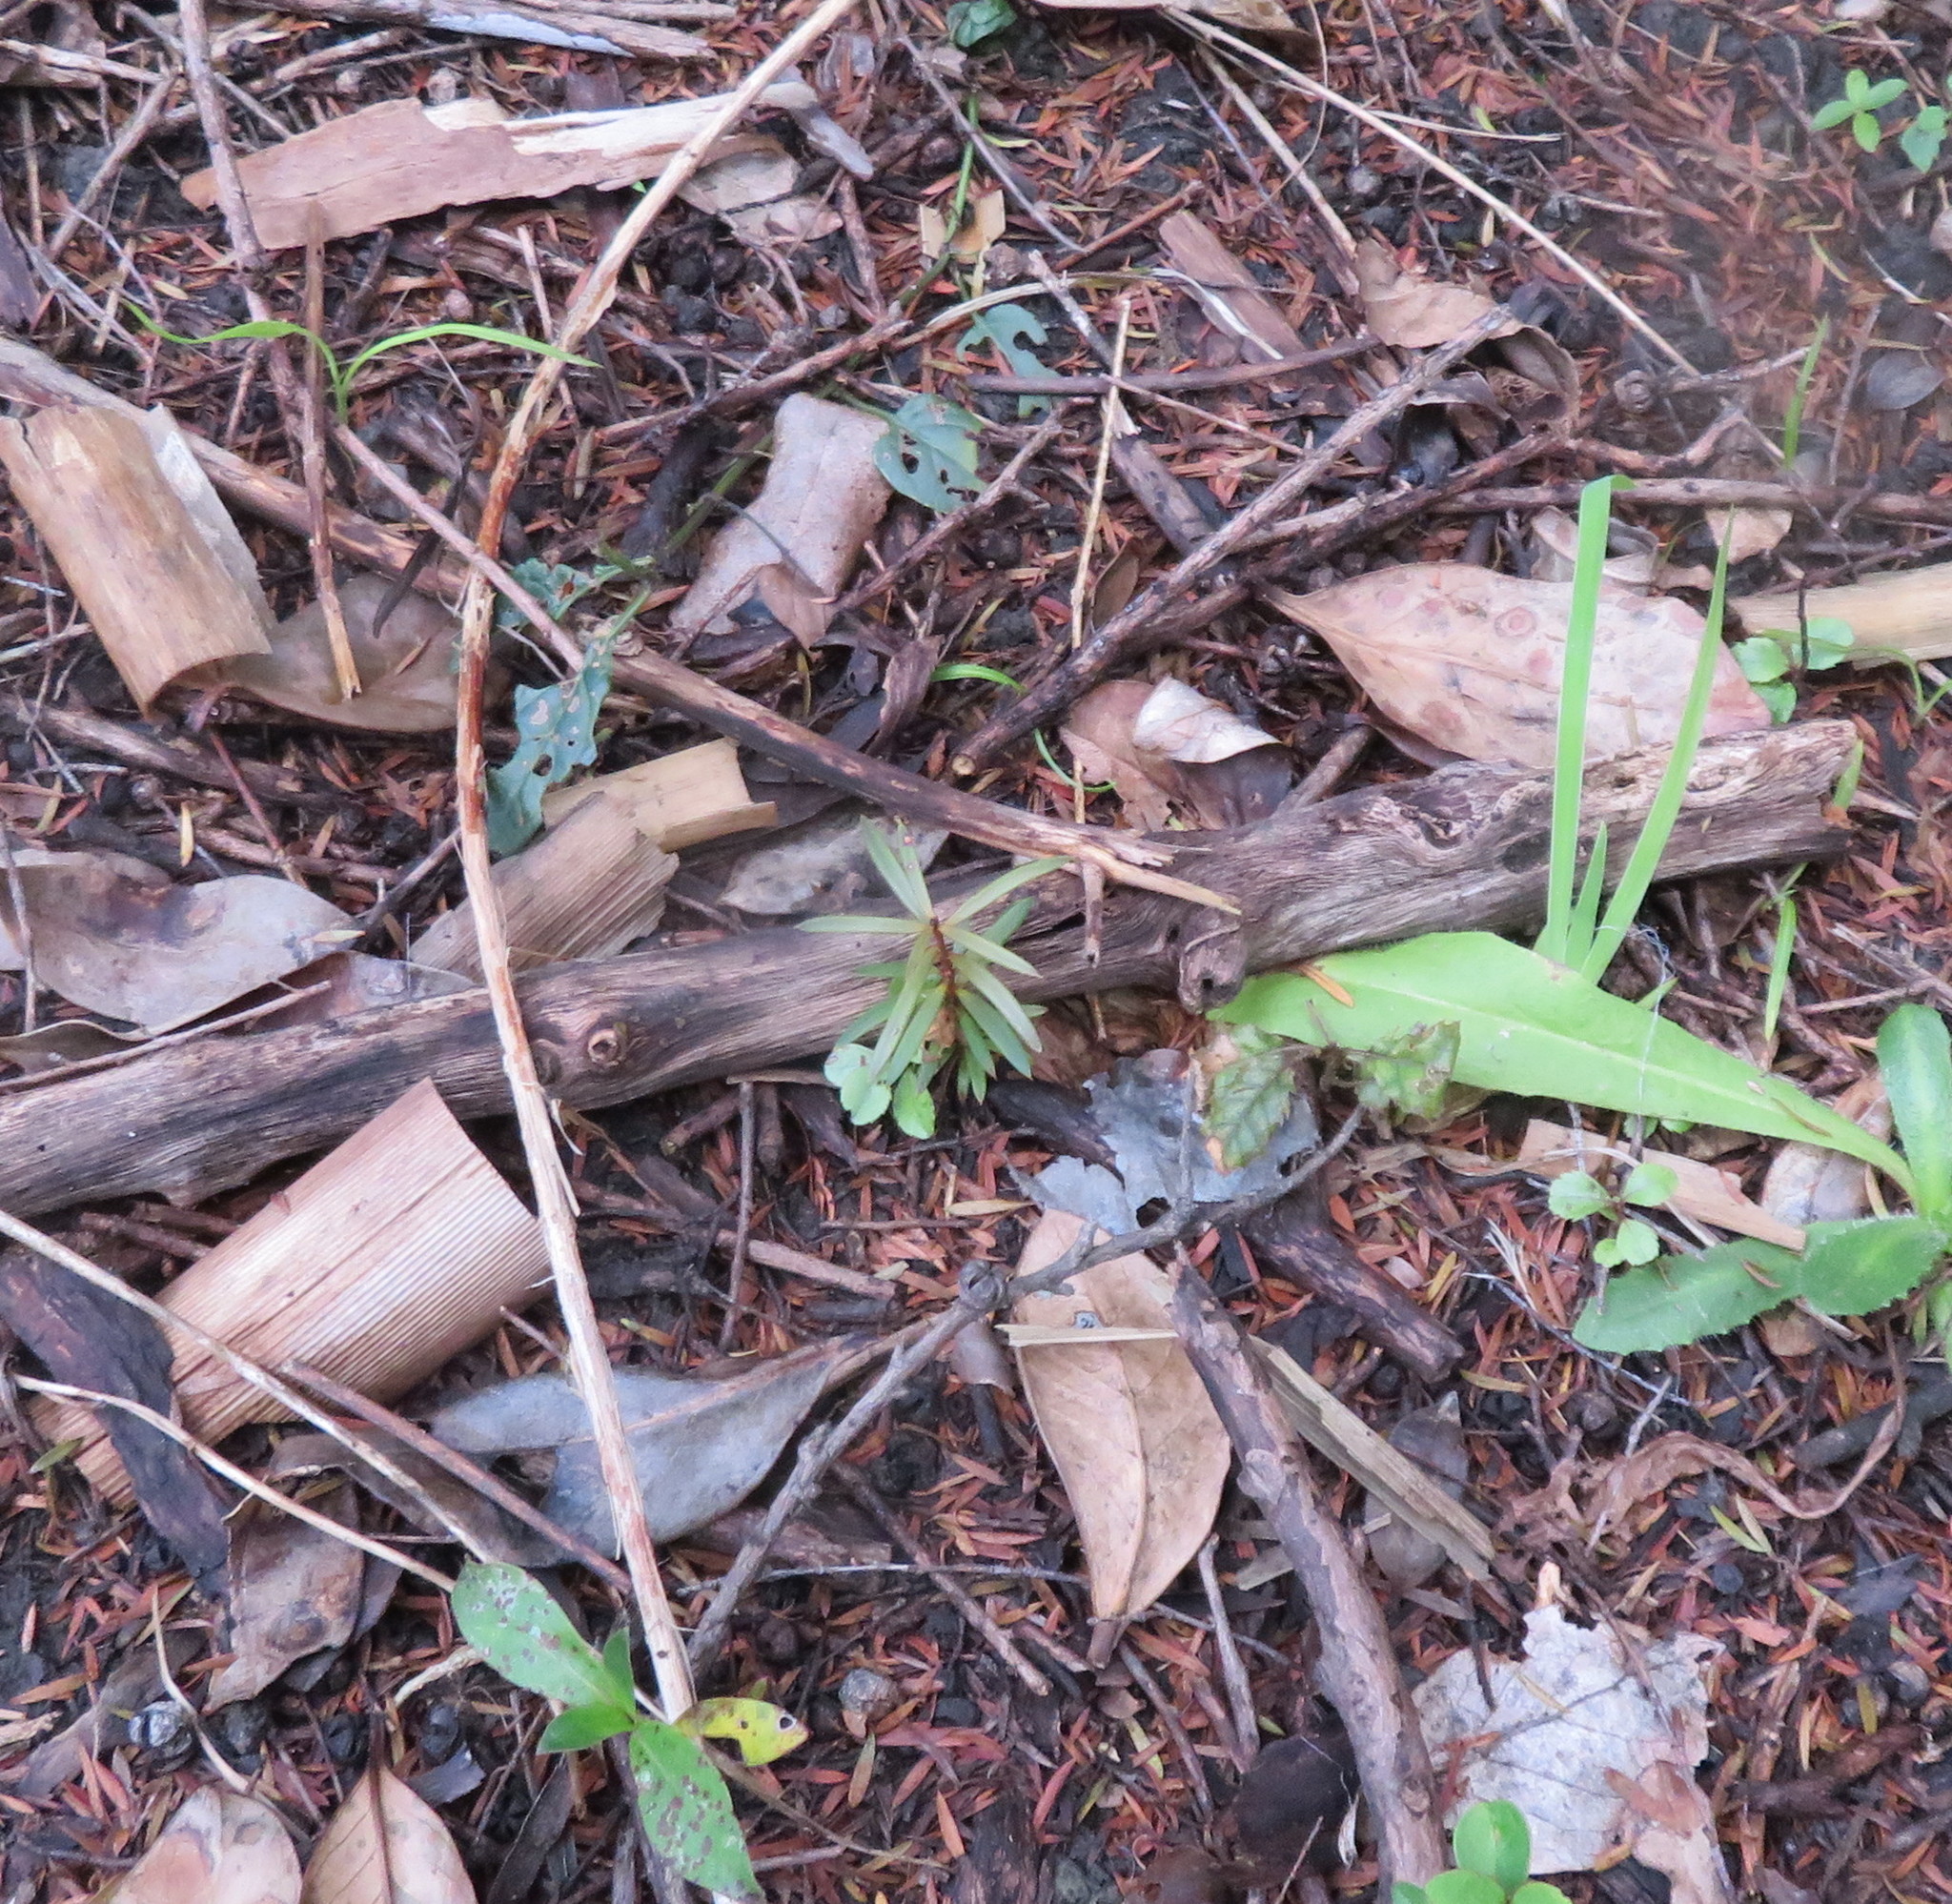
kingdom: Plantae
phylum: Tracheophyta
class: Pinopsida
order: Pinales
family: Podocarpaceae
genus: Podocarpus
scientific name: Podocarpus totara
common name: Totara
